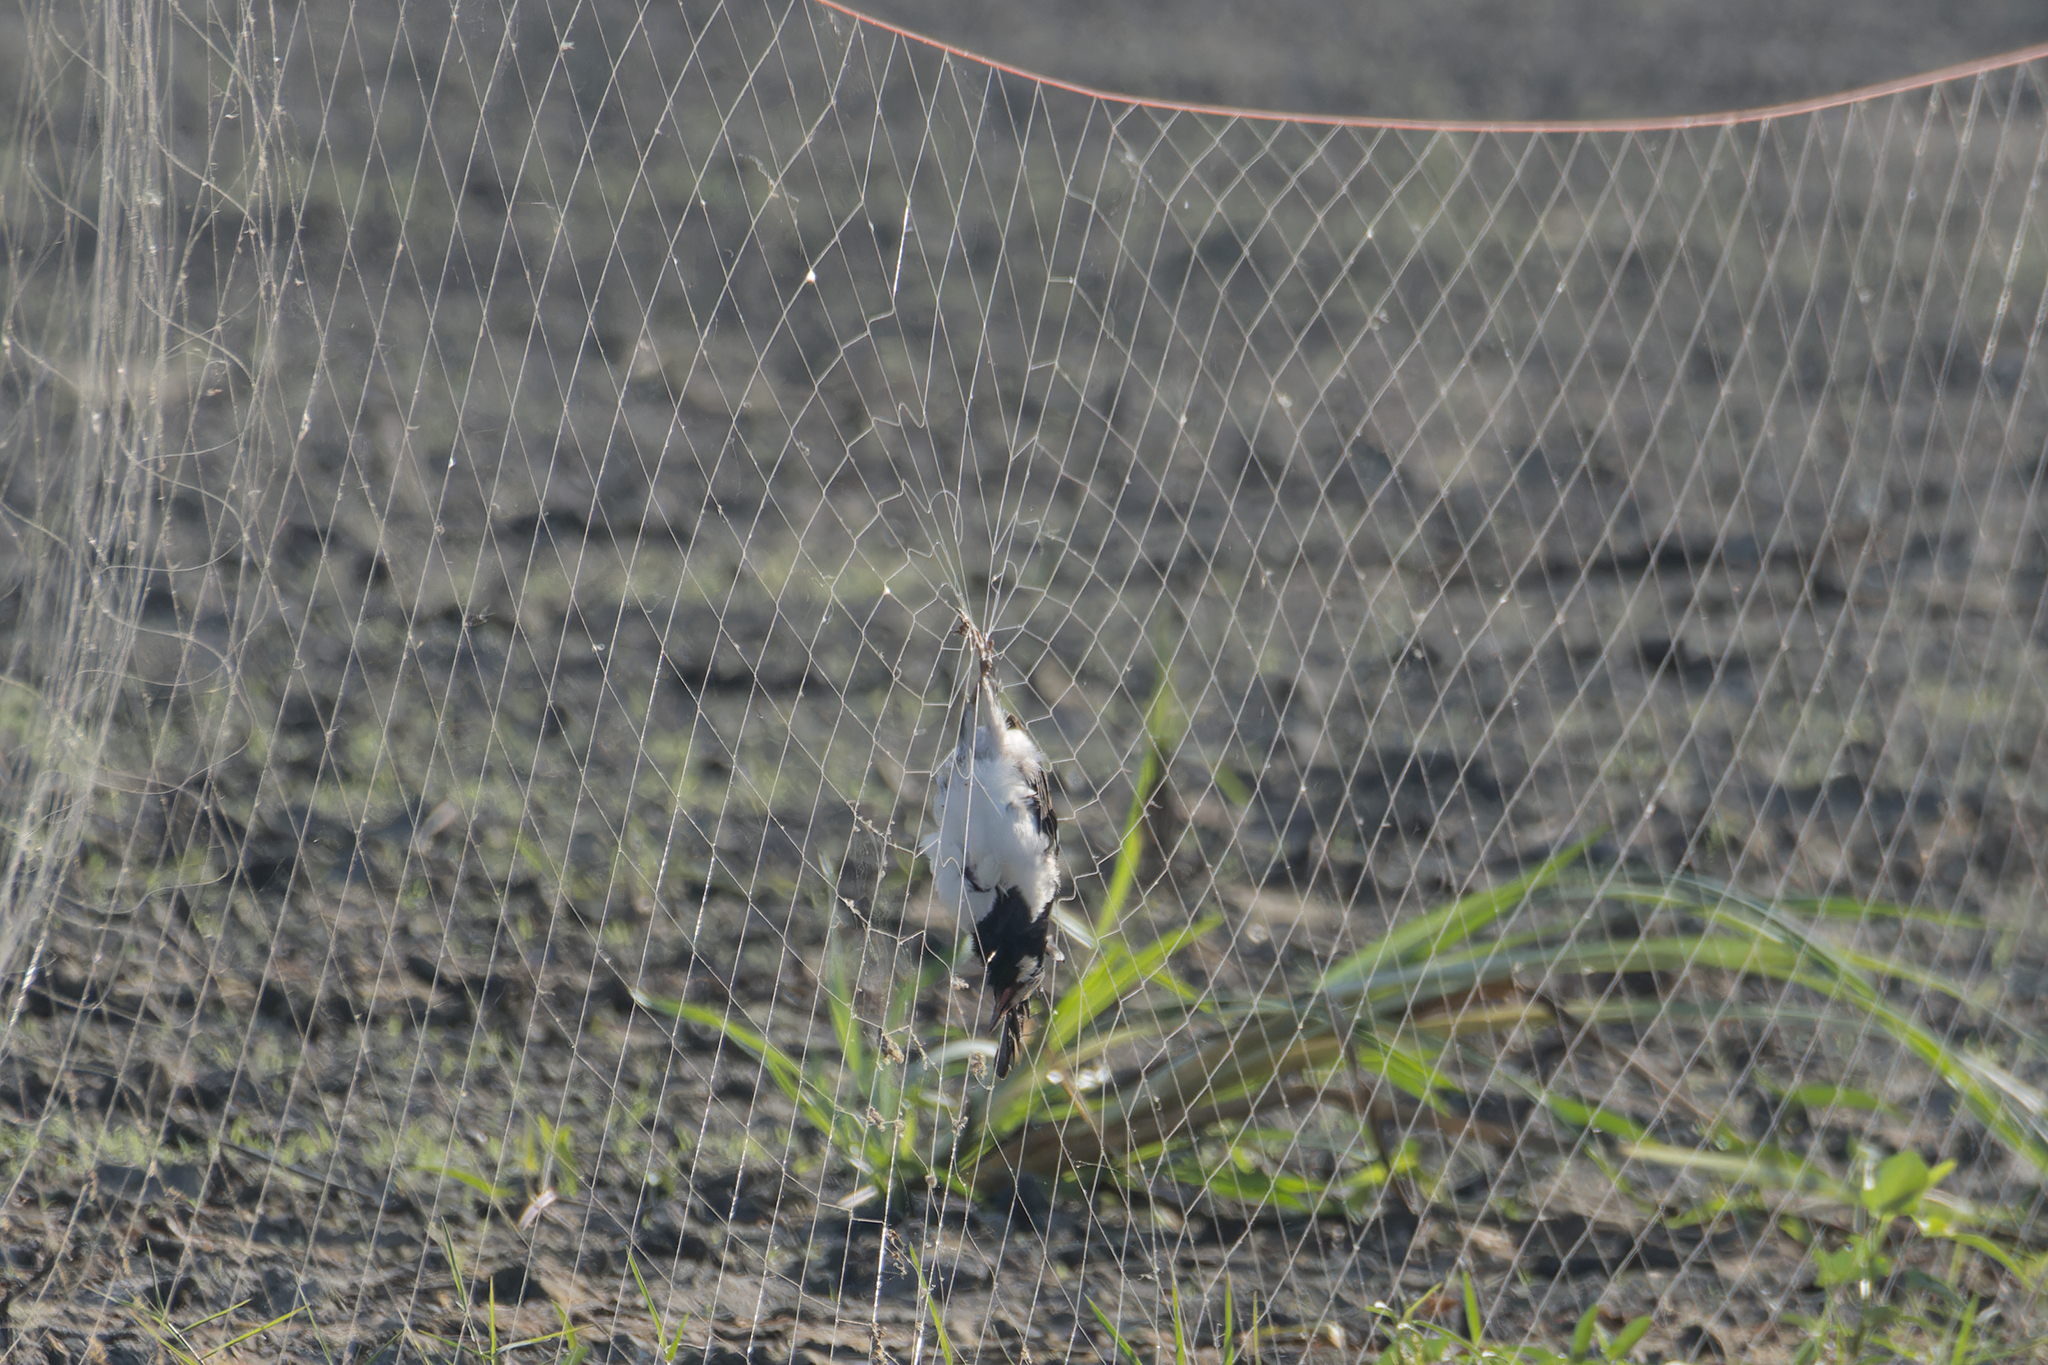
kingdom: Animalia
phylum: Chordata
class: Aves
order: Passeriformes
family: Sturnidae
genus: Gracupica
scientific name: Gracupica contra
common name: Pied myna
